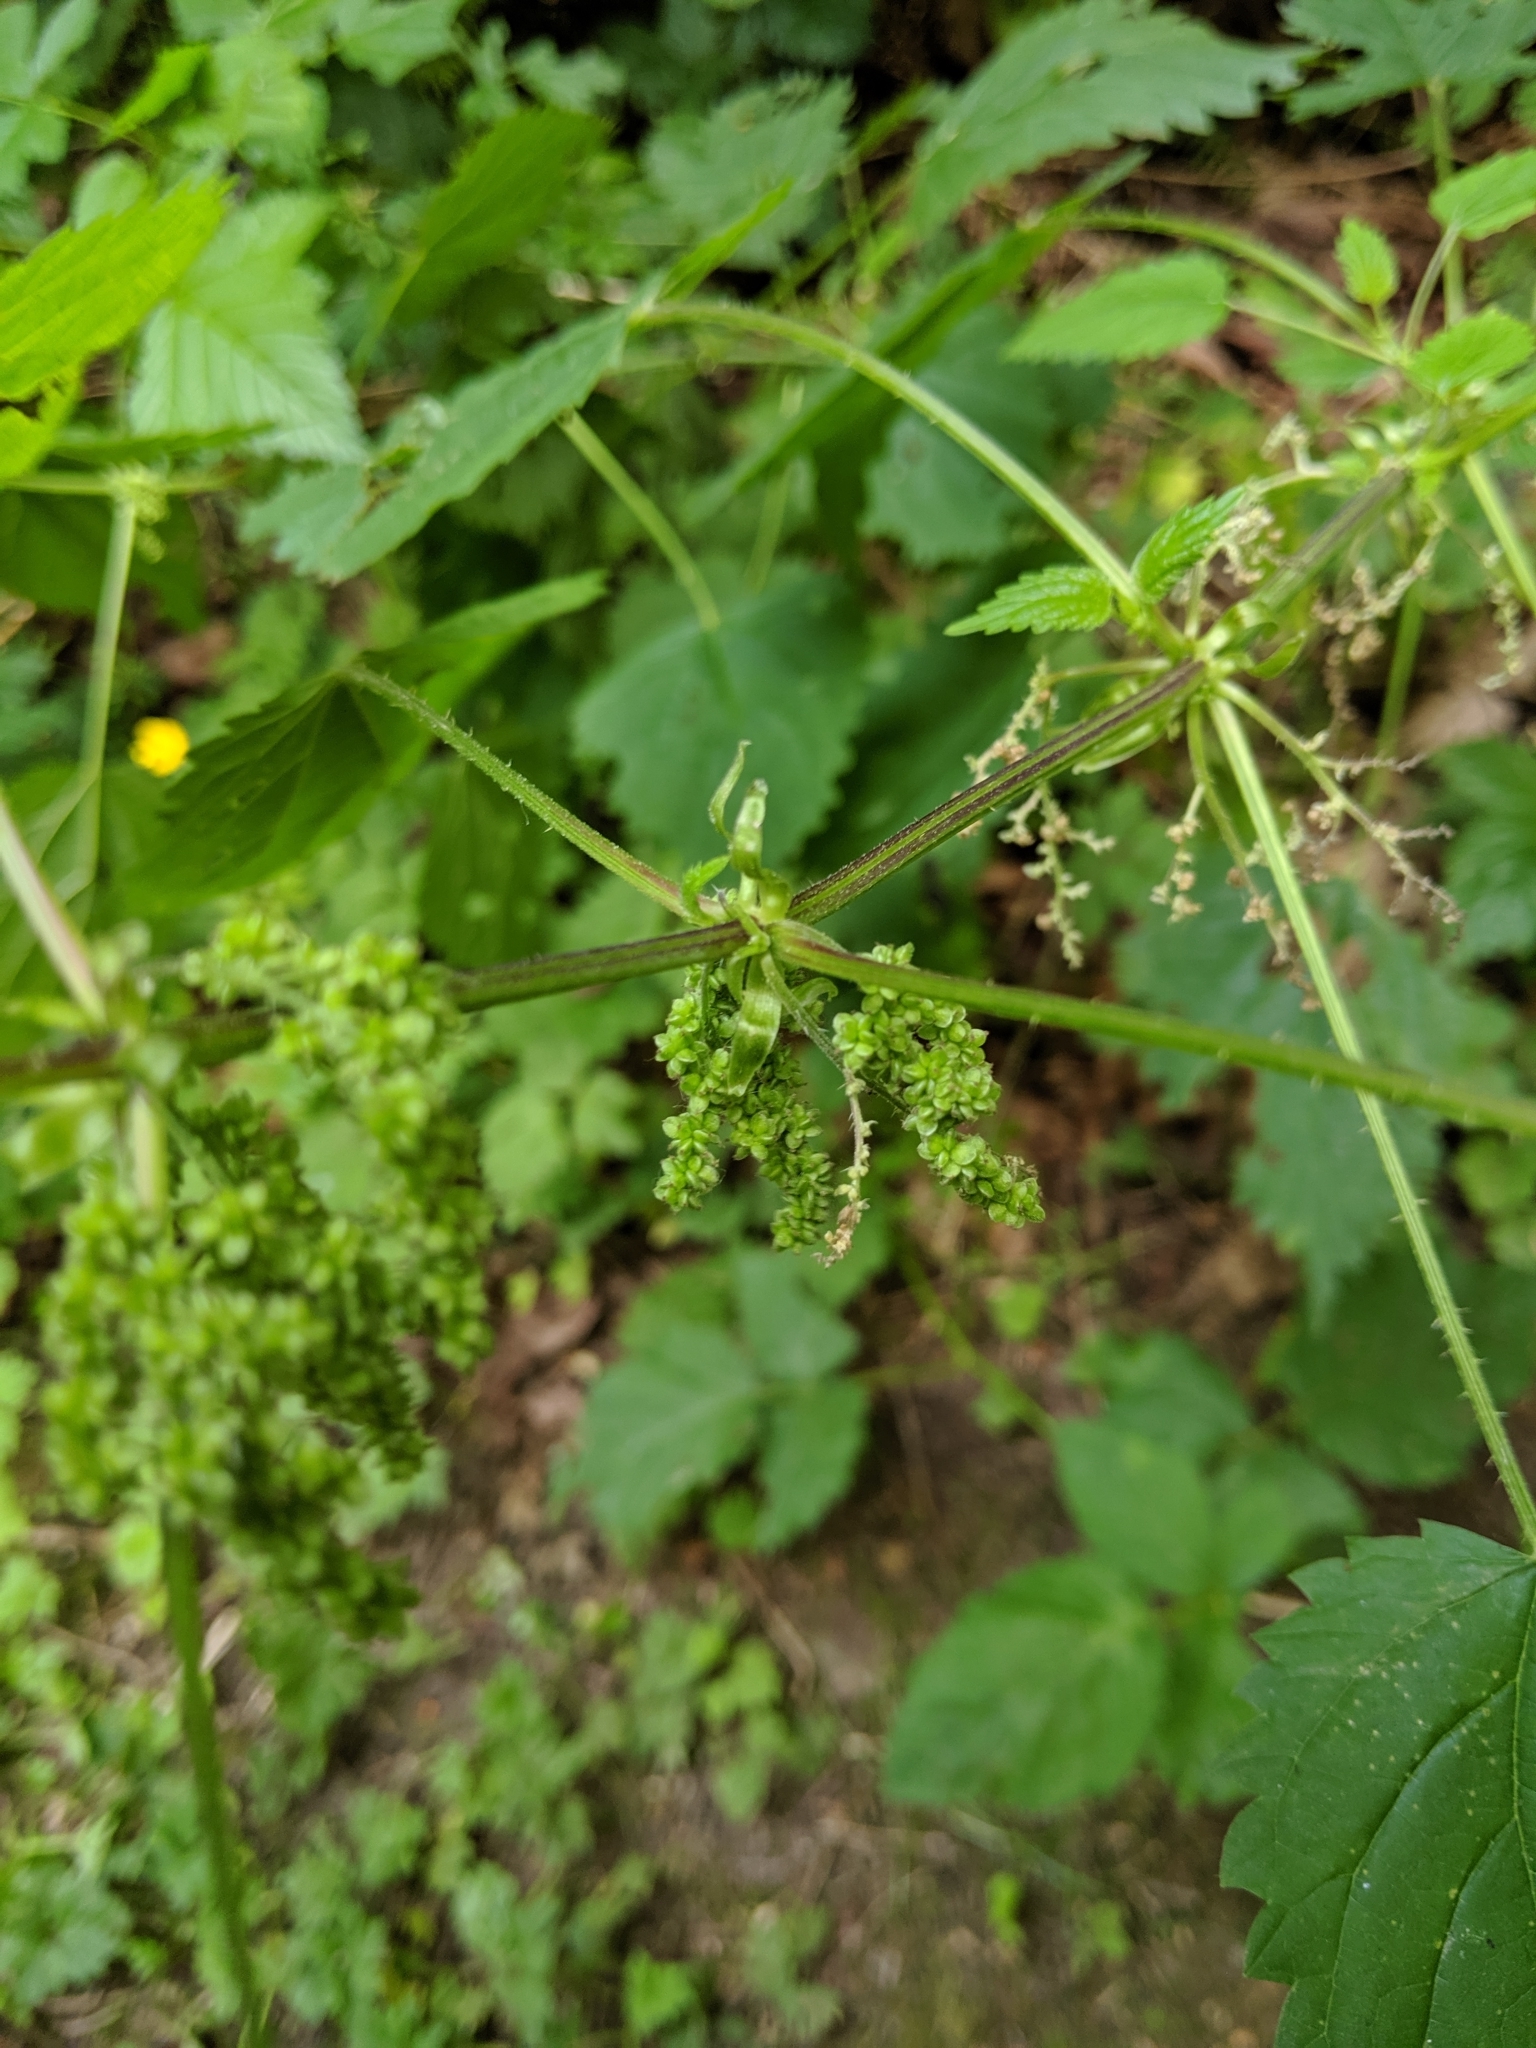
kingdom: Plantae
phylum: Tracheophyta
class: Magnoliopsida
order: Rosales
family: Urticaceae
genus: Urtica
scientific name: Urtica gracilis
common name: Slender stinging nettle
